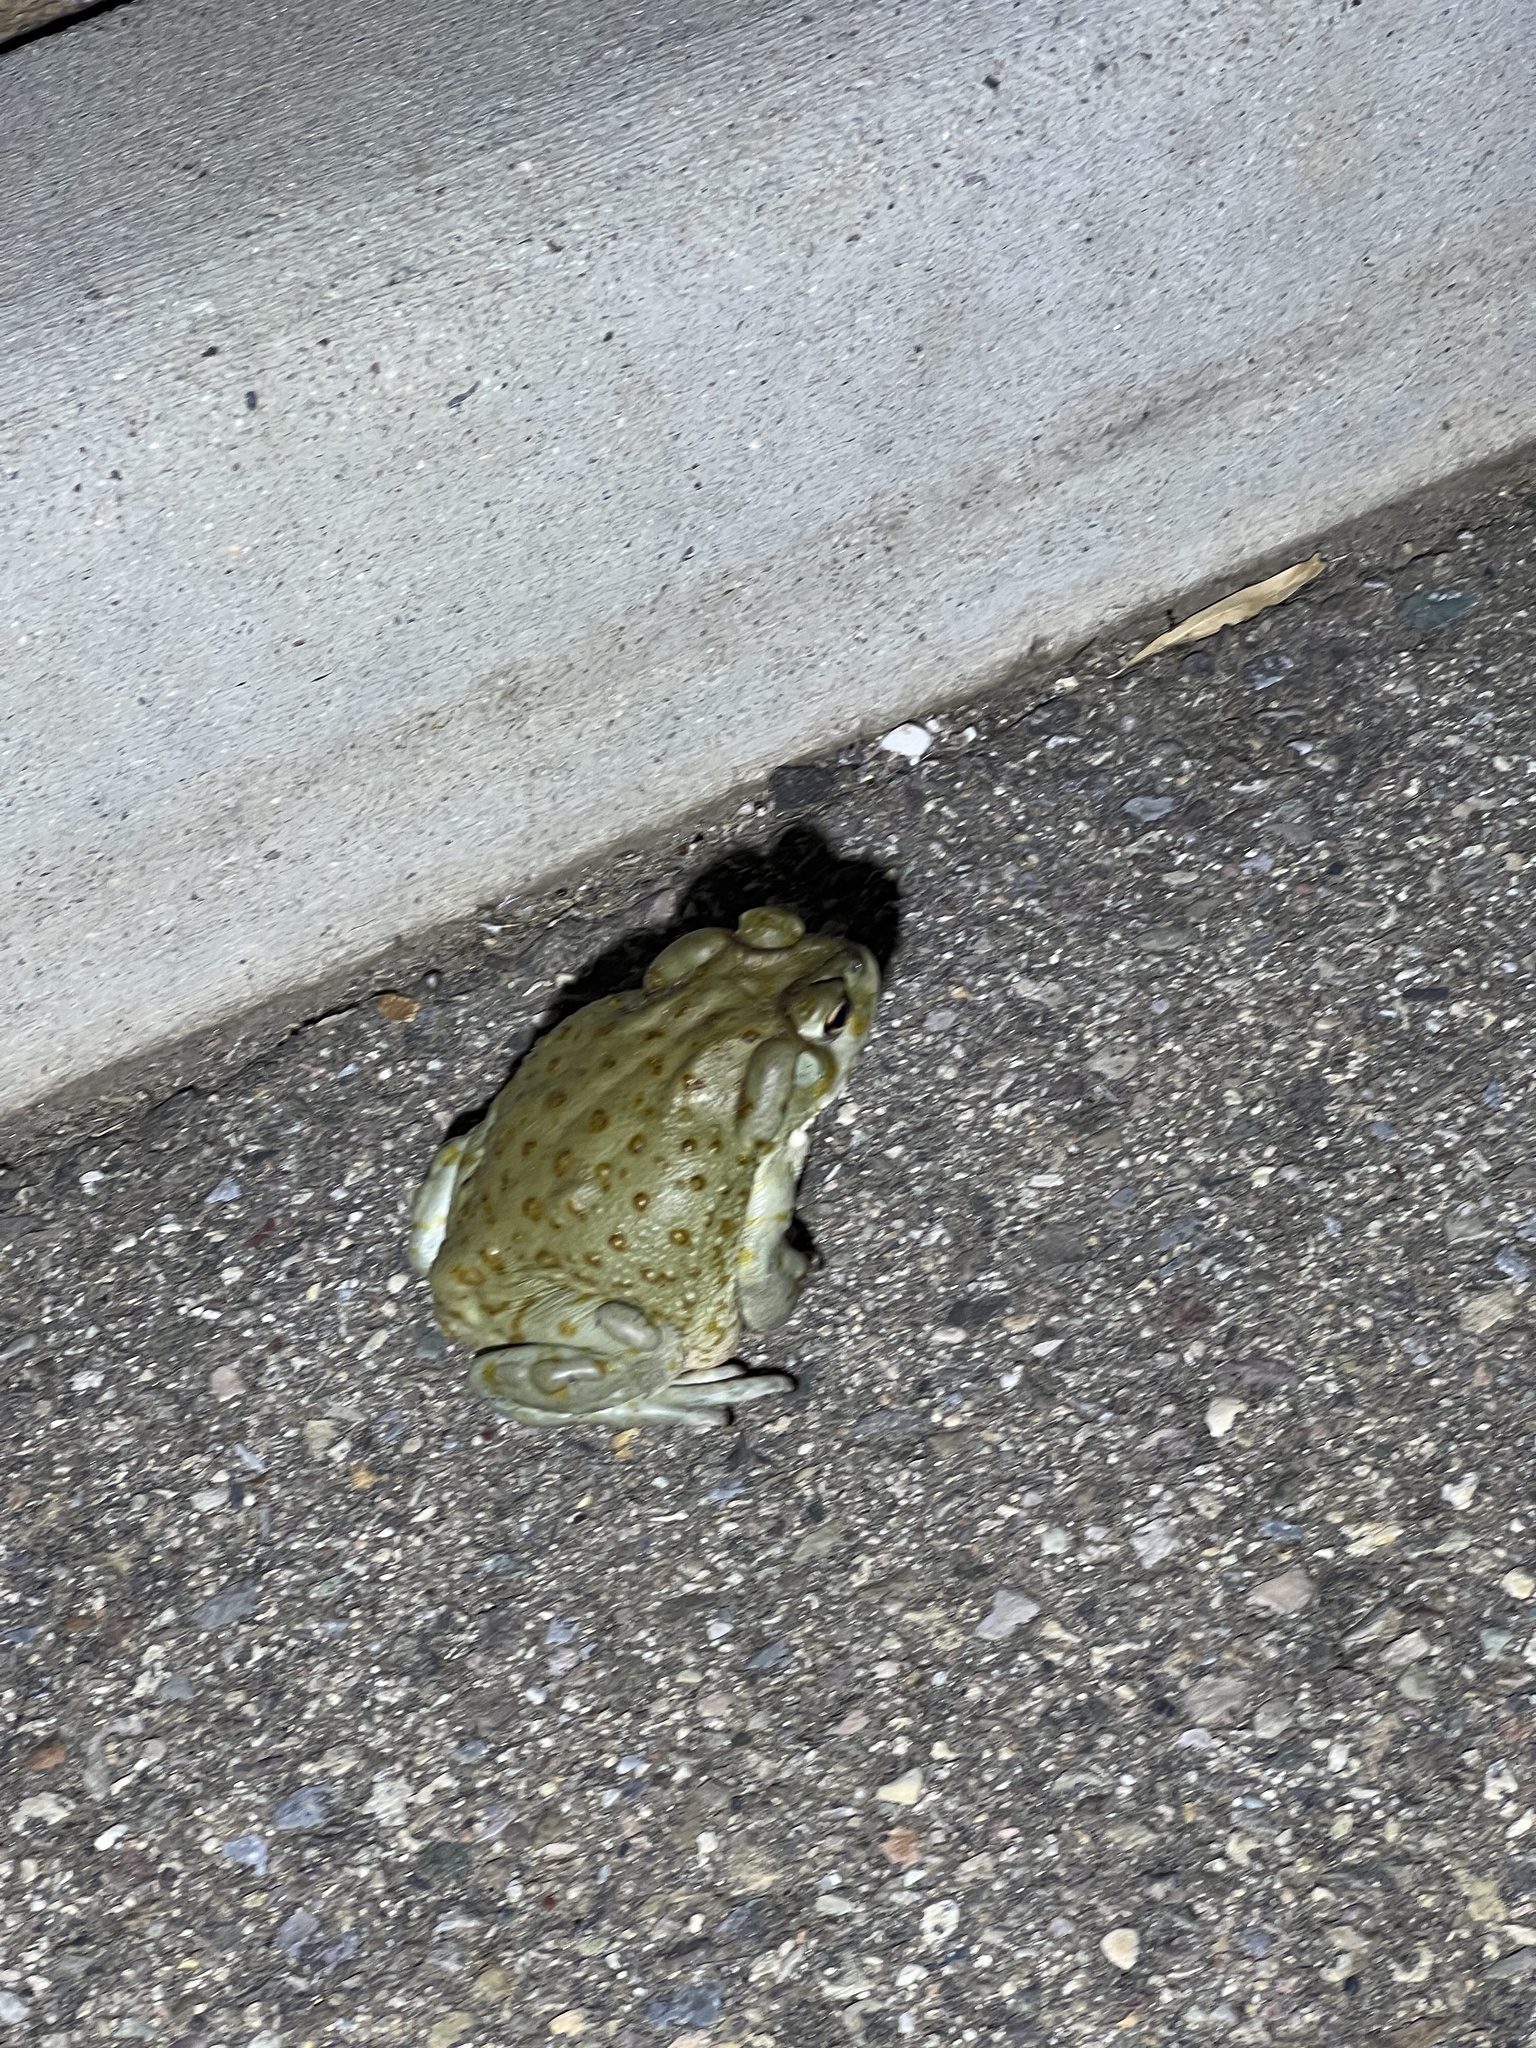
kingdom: Animalia
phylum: Chordata
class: Amphibia
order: Anura
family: Bufonidae
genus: Incilius
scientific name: Incilius alvarius
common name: Sonoran desert toad
